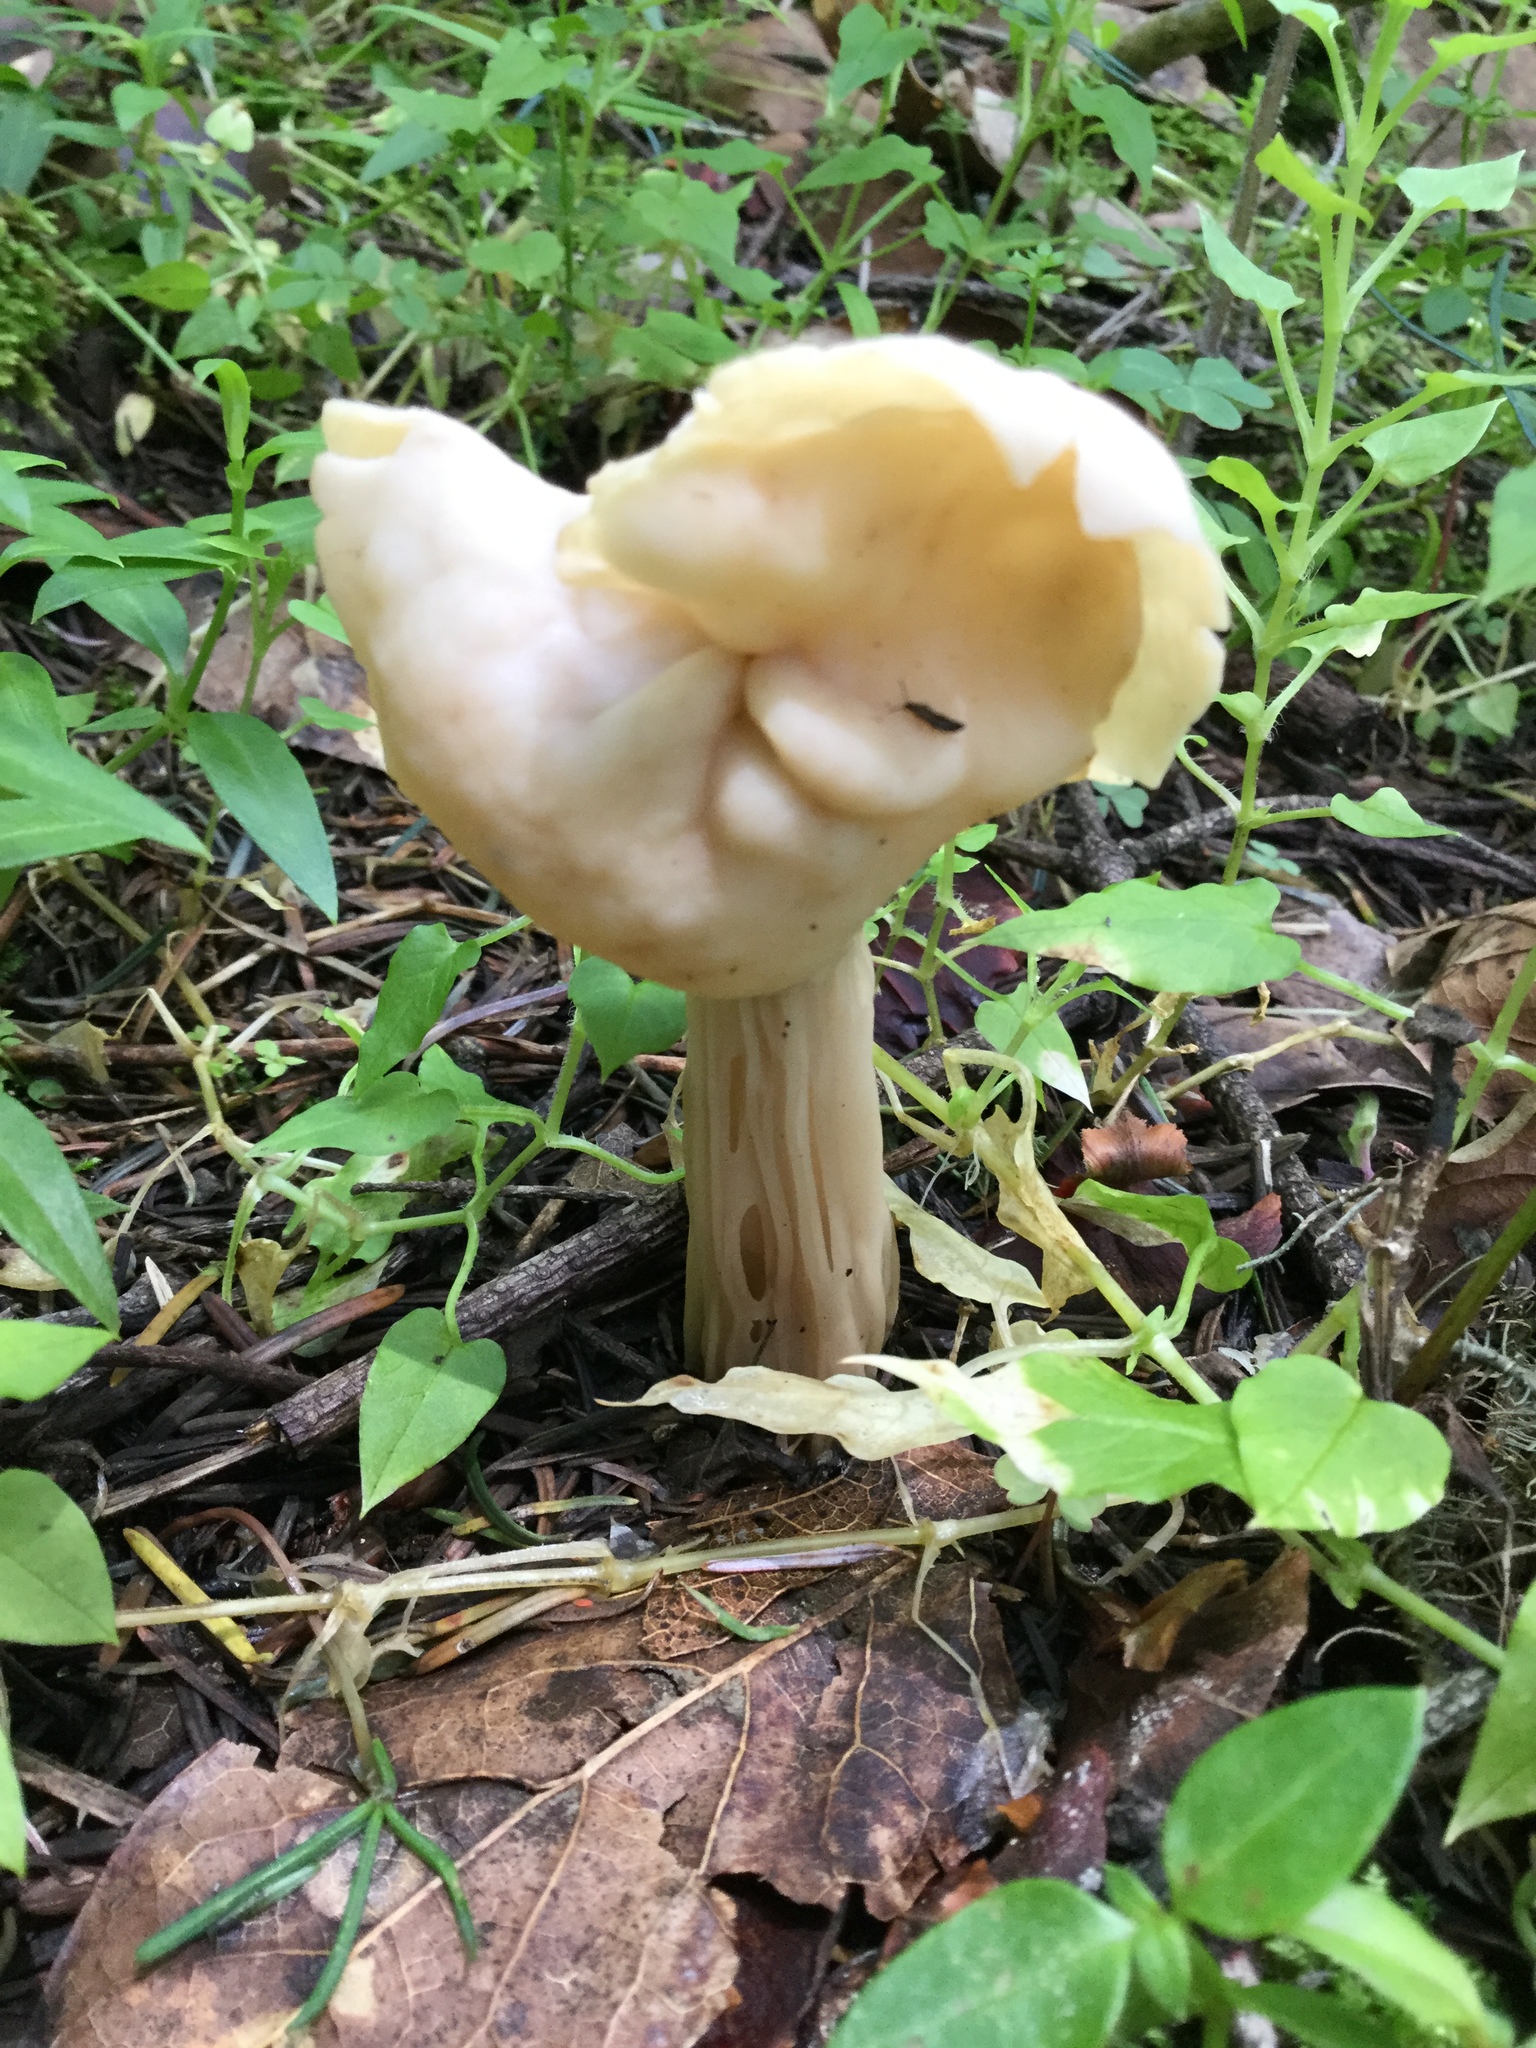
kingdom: Fungi
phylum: Ascomycota
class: Pezizomycetes
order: Pezizales
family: Helvellaceae
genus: Helvella
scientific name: Helvella crispa
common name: White saddle
